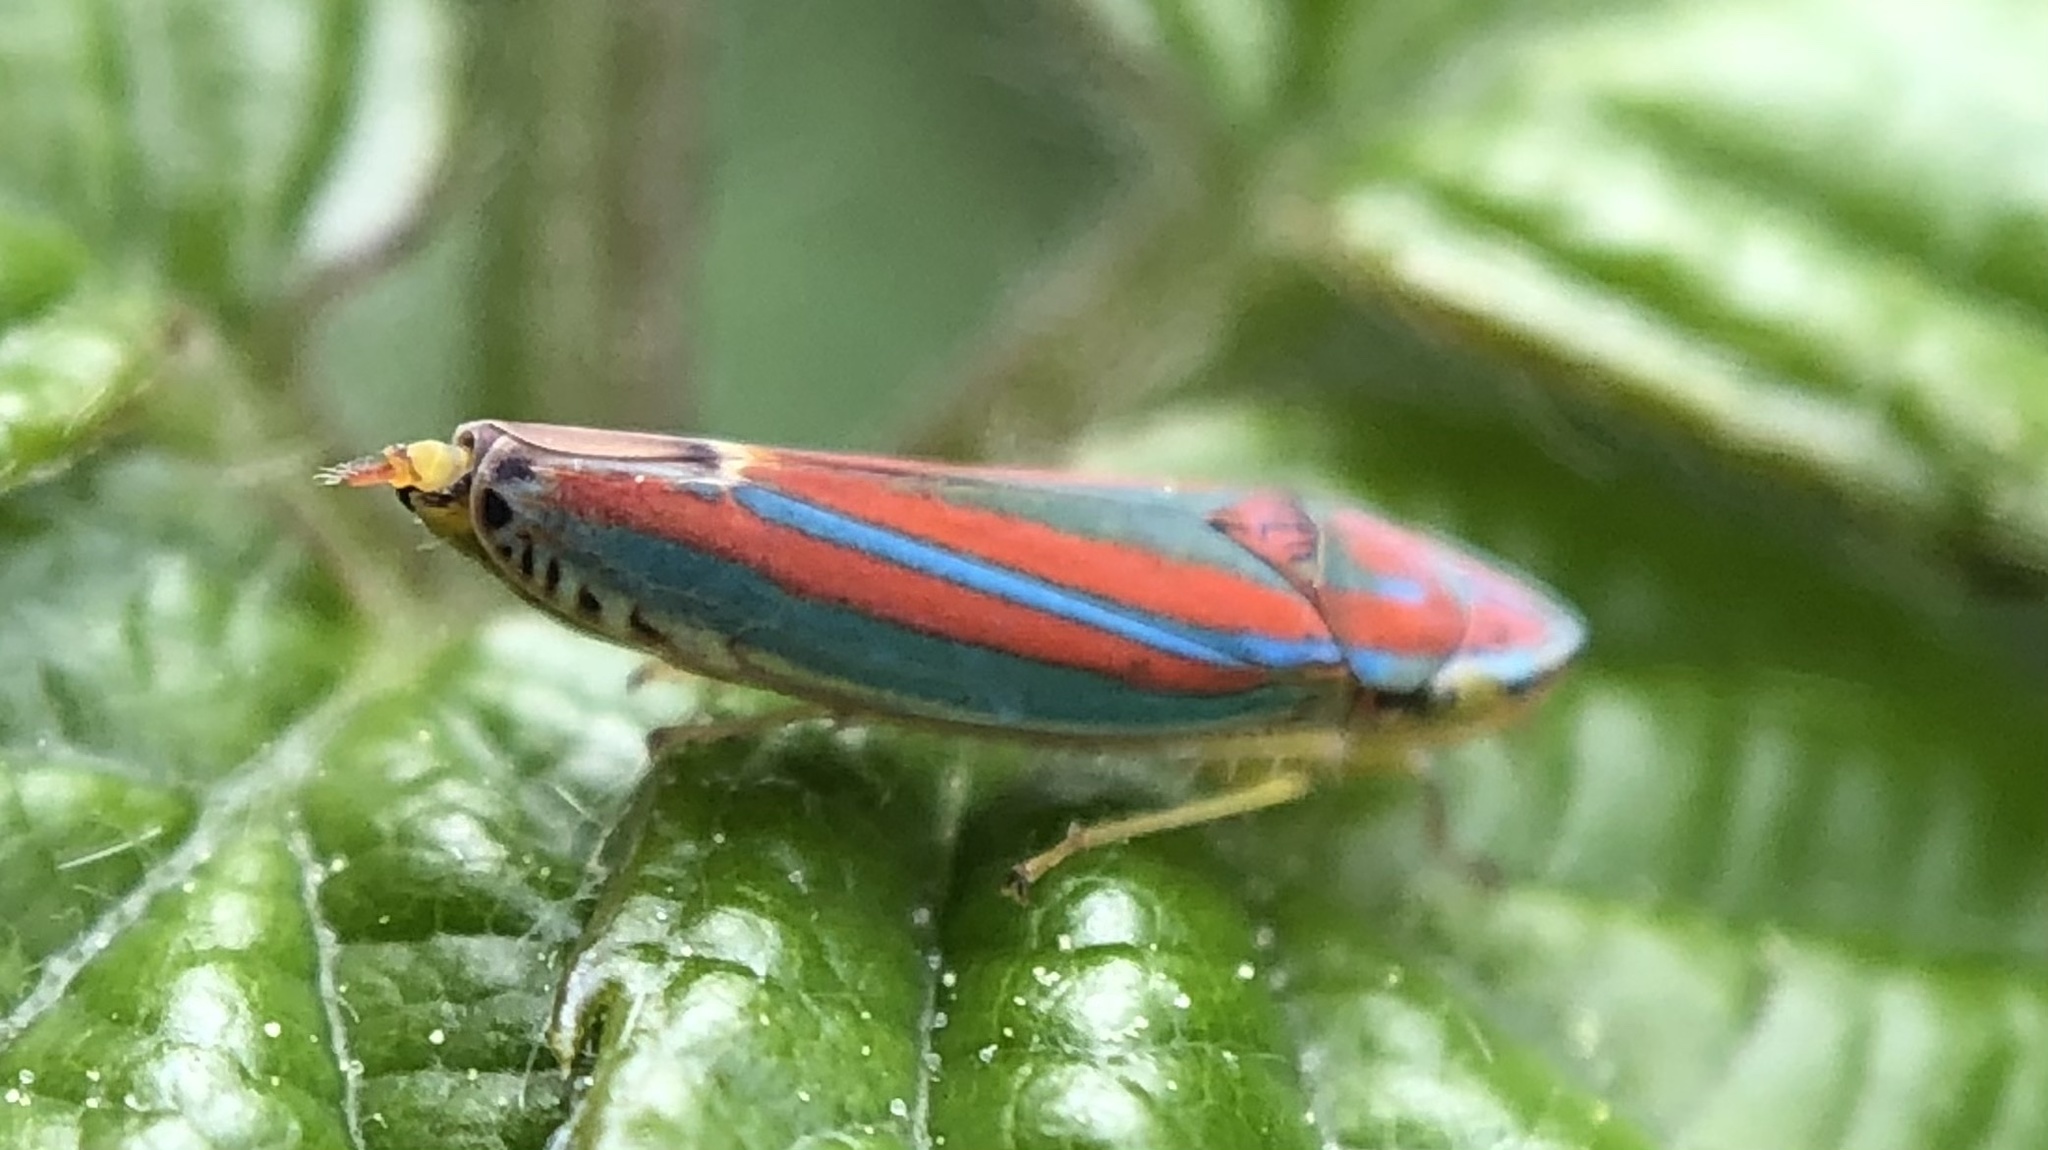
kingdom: Animalia
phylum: Arthropoda
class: Insecta
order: Hemiptera
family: Cicadellidae
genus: Graphocephala
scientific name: Graphocephala versuta
